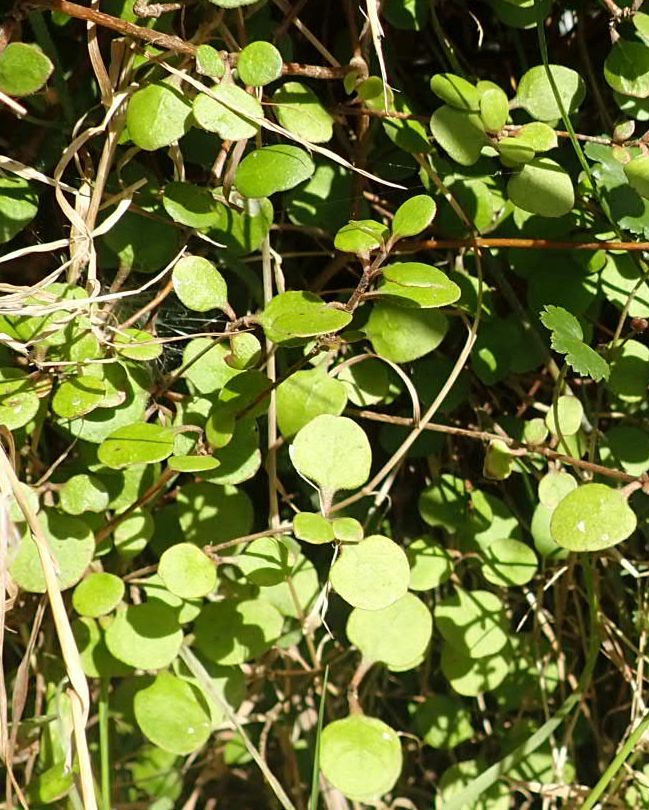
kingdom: Plantae
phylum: Tracheophyta
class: Magnoliopsida
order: Gentianales
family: Rubiaceae
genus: Coprosma
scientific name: Coprosma crassifolia
